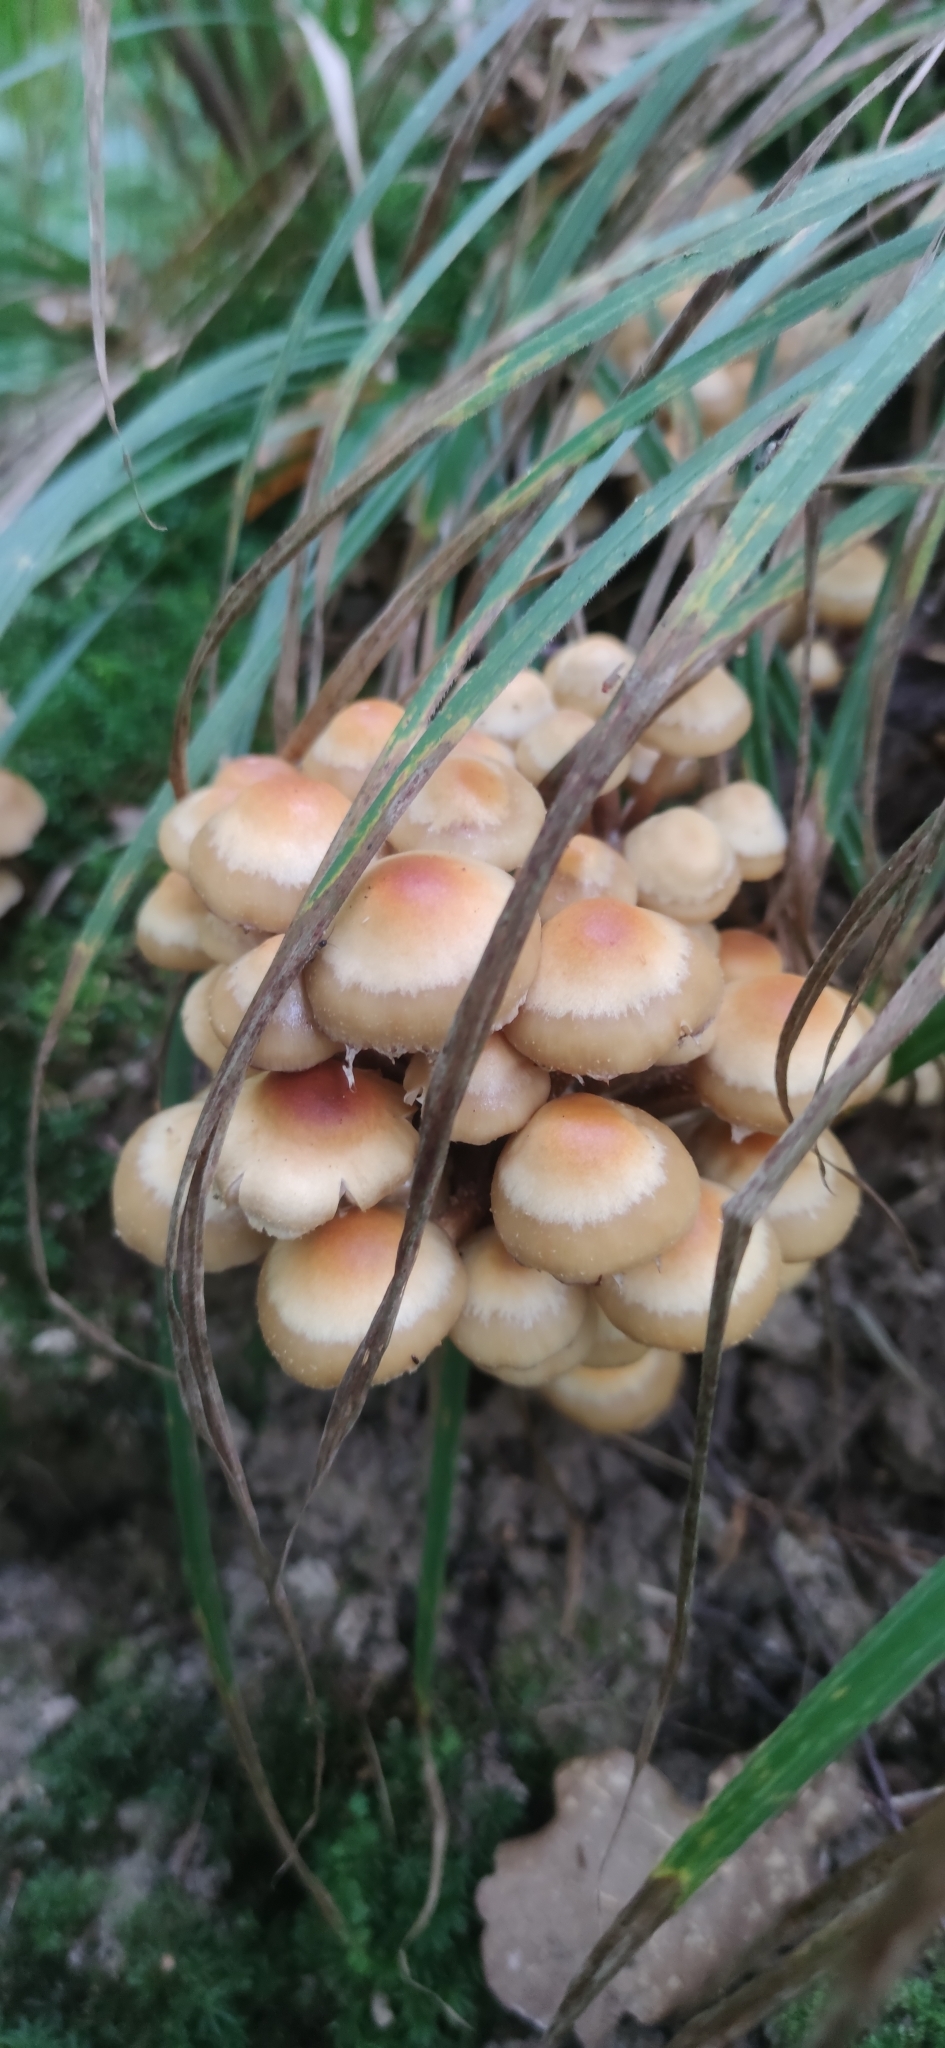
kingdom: Fungi
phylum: Basidiomycota
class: Agaricomycetes
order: Agaricales
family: Strophariaceae
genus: Kuehneromyces
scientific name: Kuehneromyces mutabilis
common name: Sheathed woodtuft
